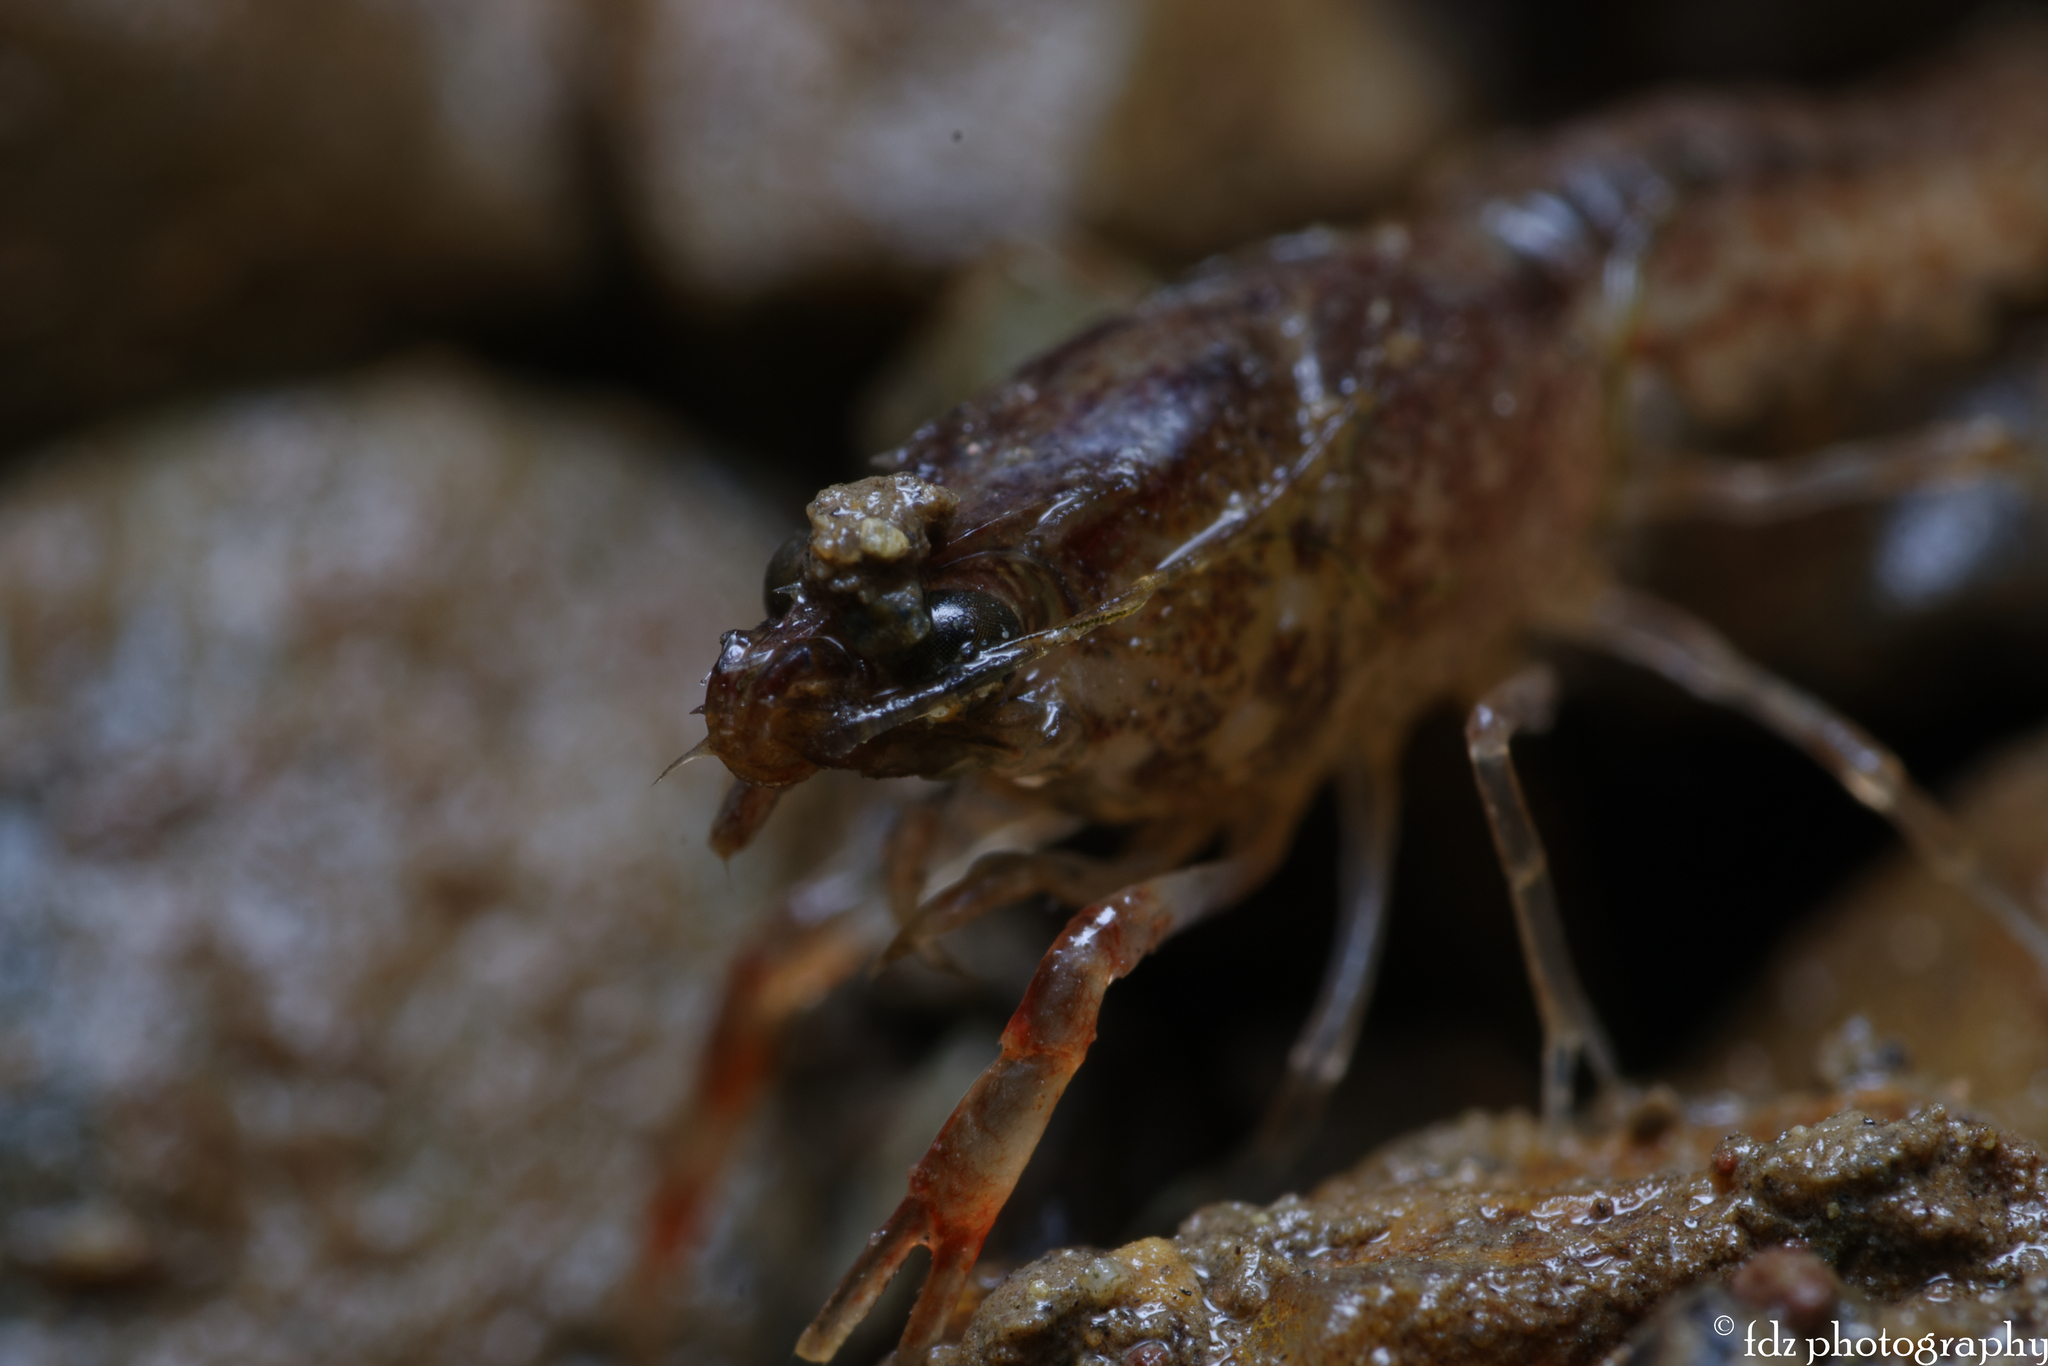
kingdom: Animalia
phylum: Arthropoda
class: Malacostraca
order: Decapoda
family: Cambaridae
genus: Procambarus
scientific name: Procambarus clarkii
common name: Red swamp crayfish
